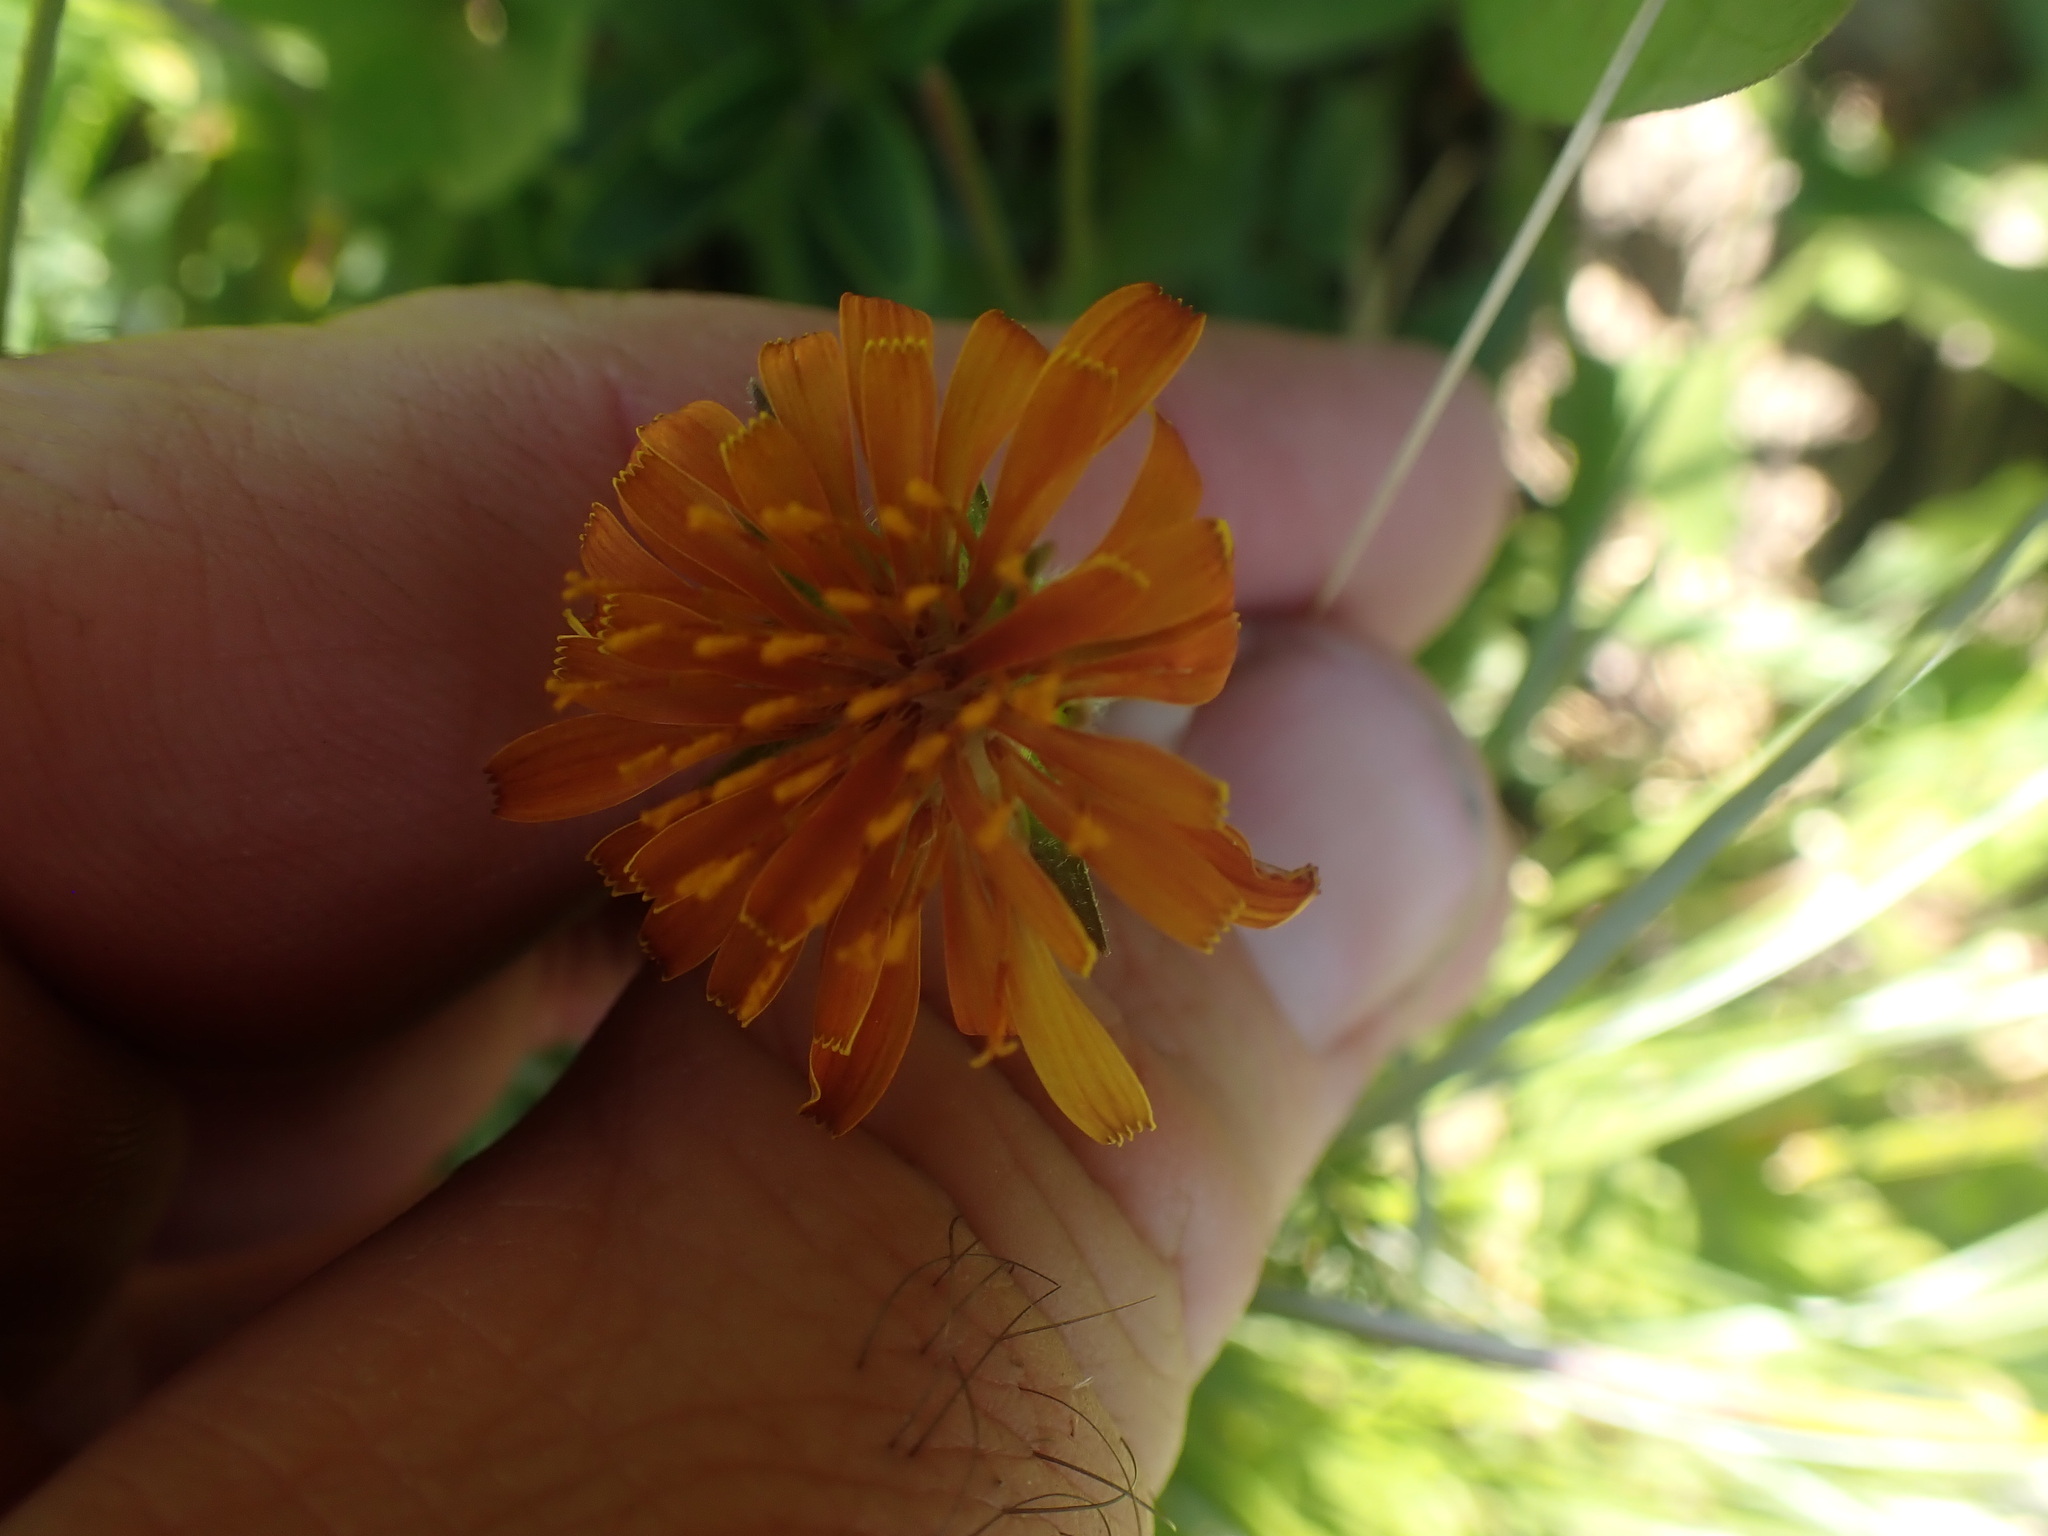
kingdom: Plantae
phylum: Tracheophyta
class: Magnoliopsida
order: Asterales
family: Asteraceae
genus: Agoseris
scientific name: Agoseris aurantiaca
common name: Mountain agoseris
